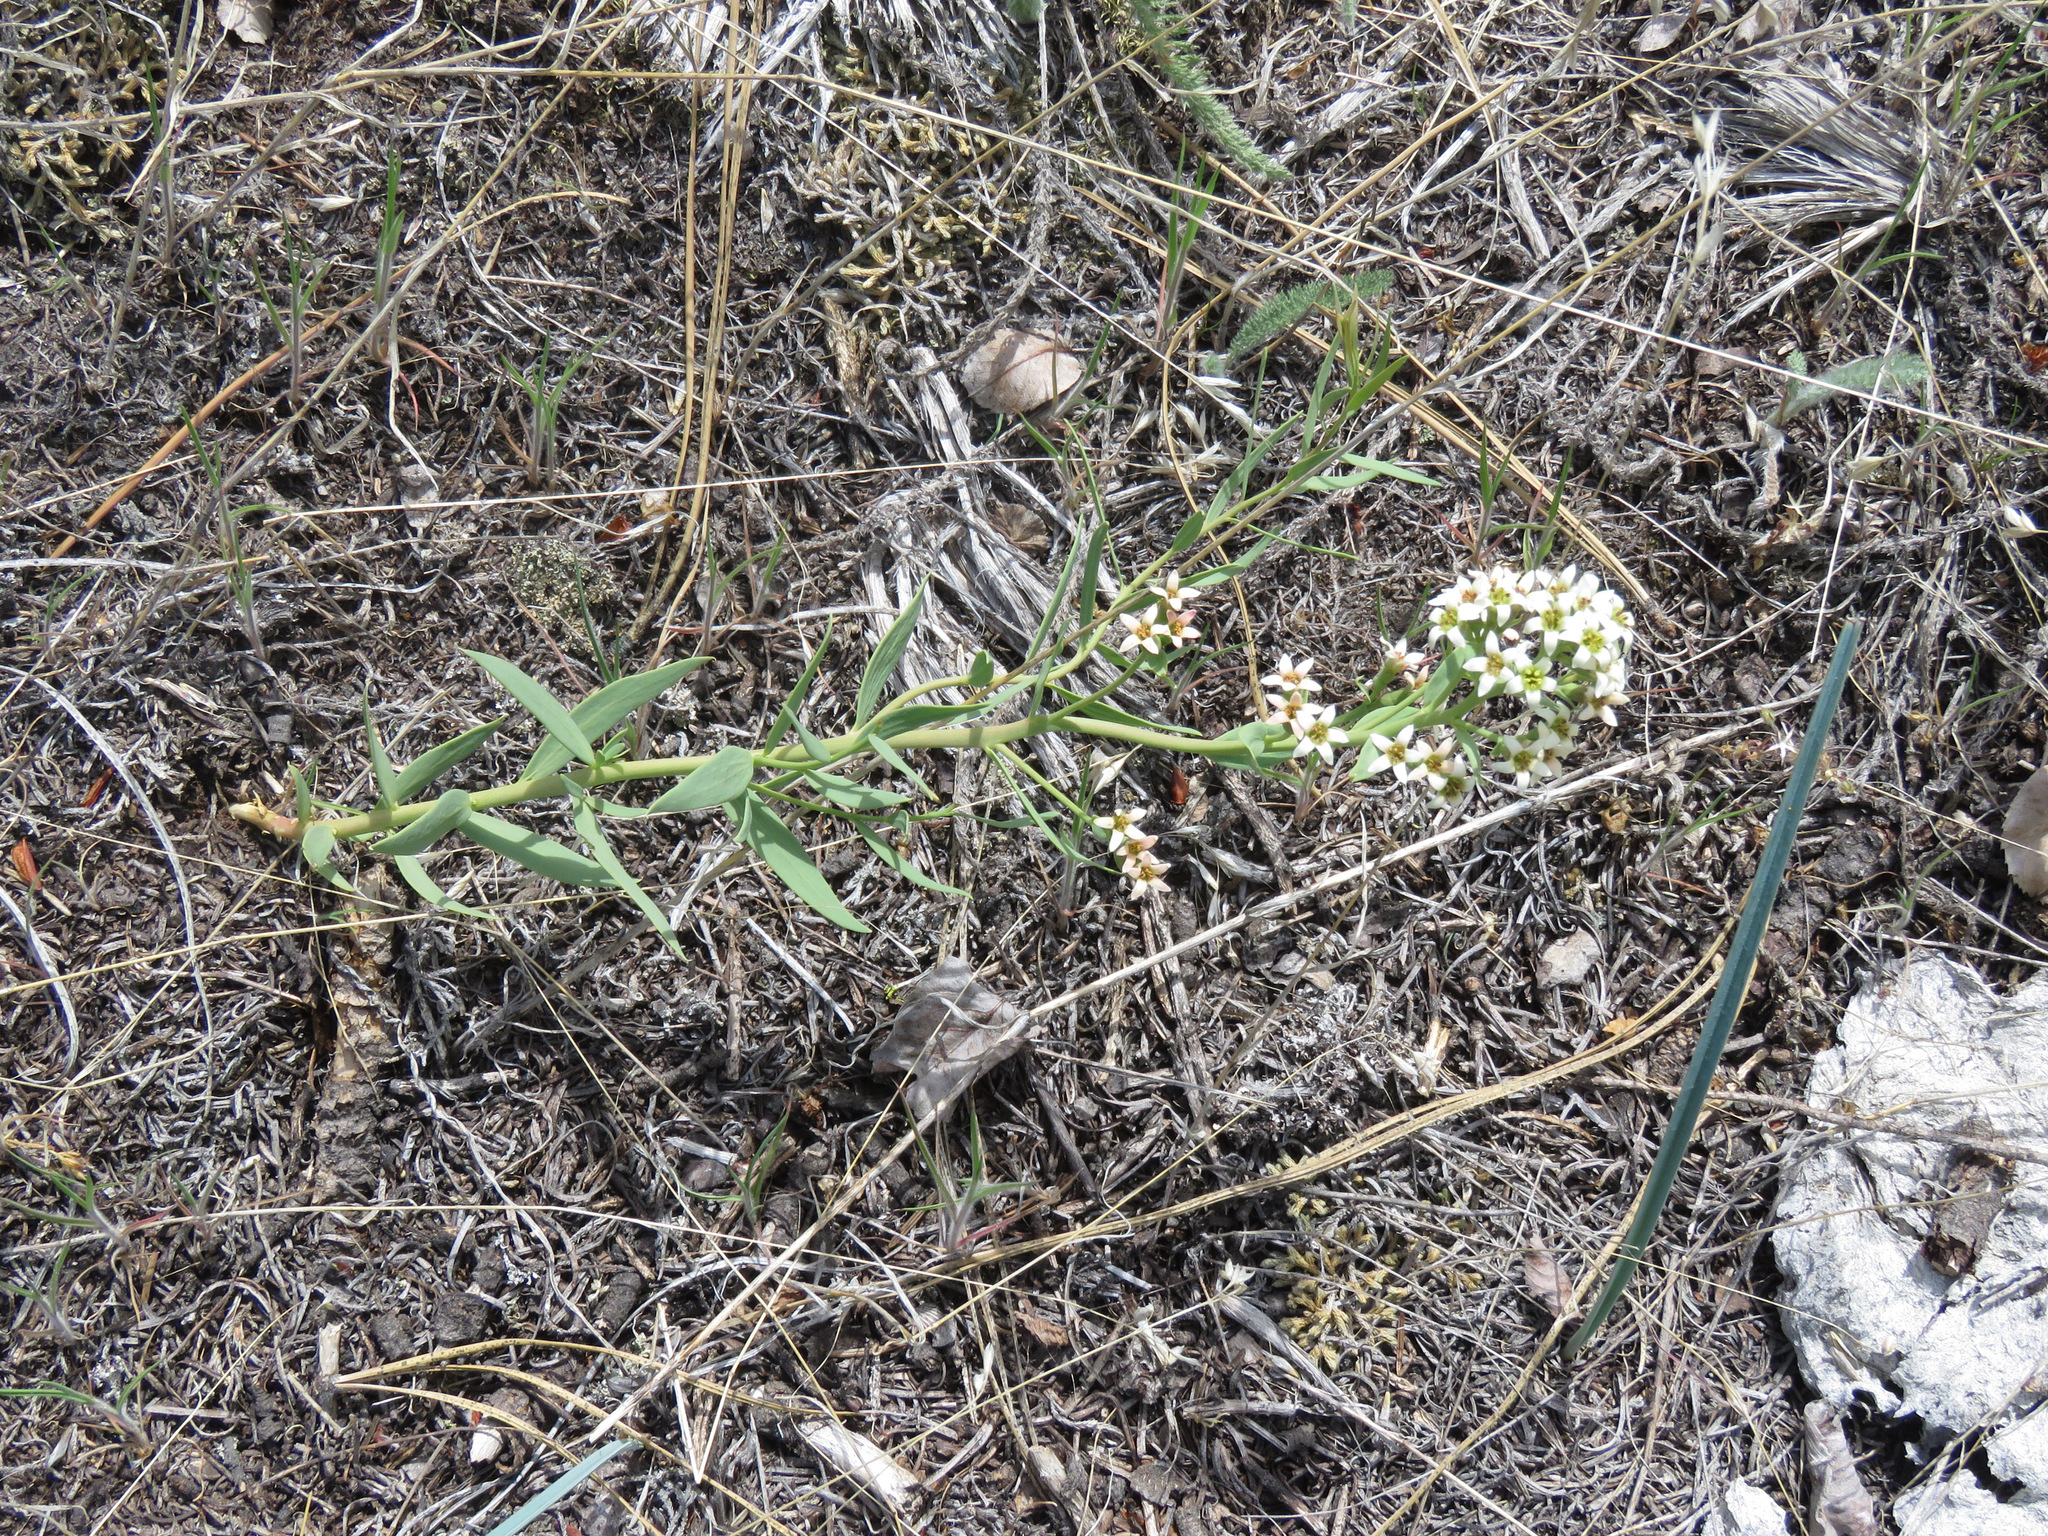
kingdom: Plantae
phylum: Tracheophyta
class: Magnoliopsida
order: Santalales
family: Comandraceae
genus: Comandra
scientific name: Comandra umbellata
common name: Bastard toadflax
